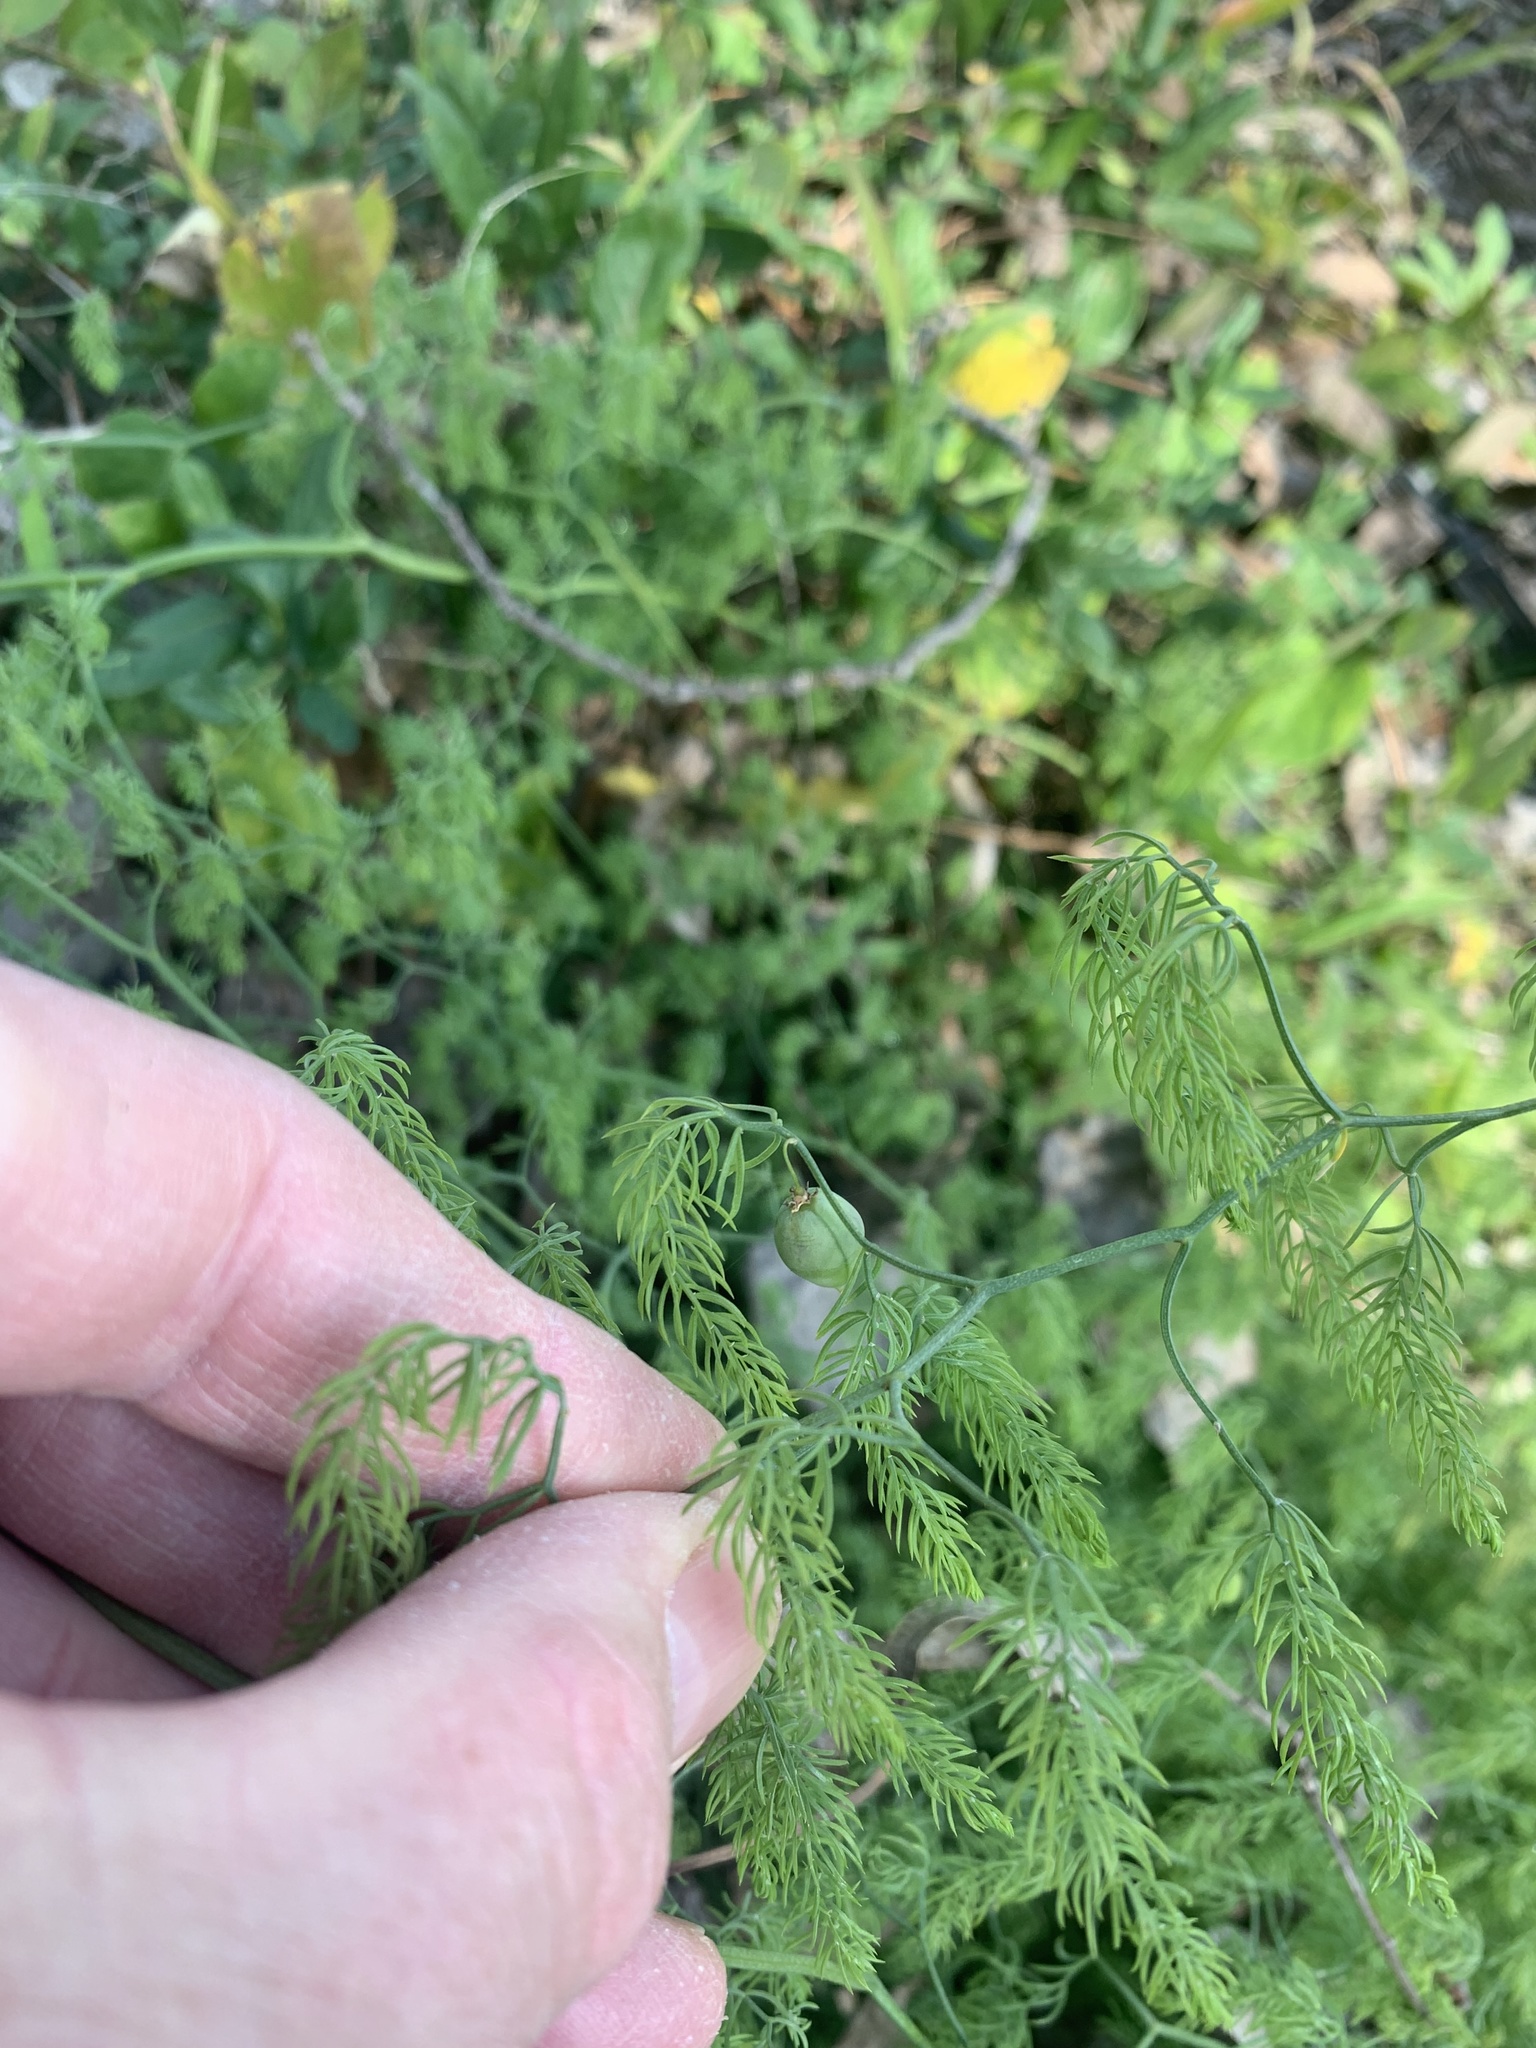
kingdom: Plantae
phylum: Tracheophyta
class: Liliopsida
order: Asparagales
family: Asparagaceae
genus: Asparagus
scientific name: Asparagus declinatus
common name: Bridal-creeper
